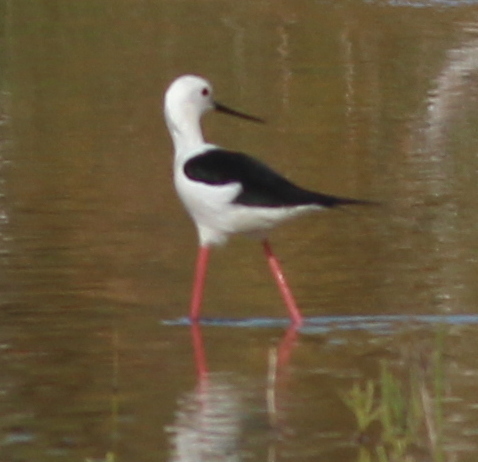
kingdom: Animalia
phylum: Chordata
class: Aves
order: Charadriiformes
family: Recurvirostridae
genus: Himantopus
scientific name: Himantopus himantopus
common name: Black-winged stilt
